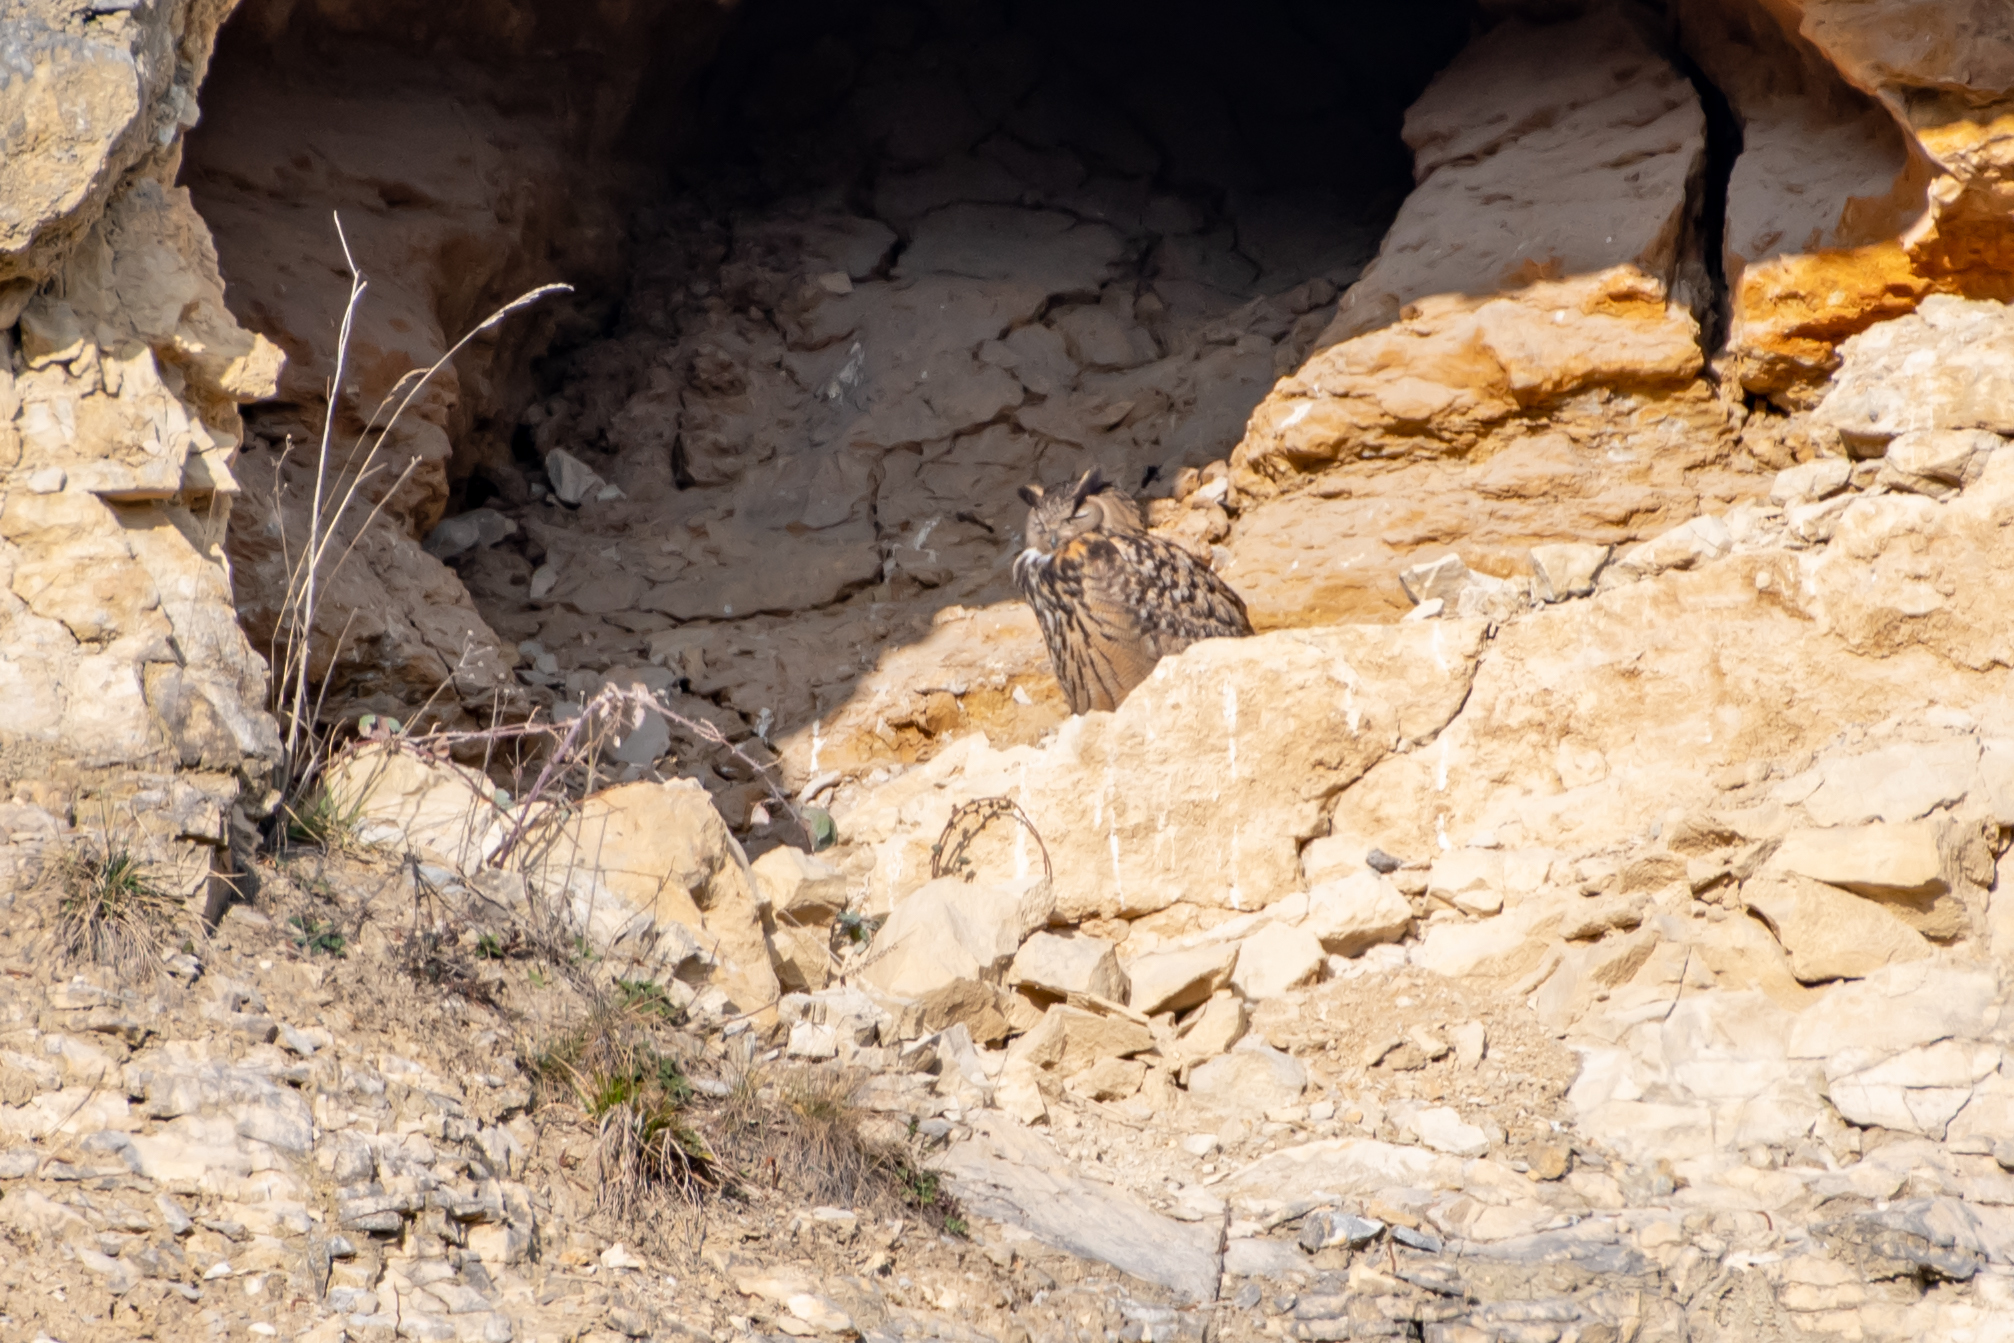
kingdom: Animalia
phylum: Chordata
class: Aves
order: Strigiformes
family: Strigidae
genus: Bubo
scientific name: Bubo bubo
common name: Eurasian eagle-owl
